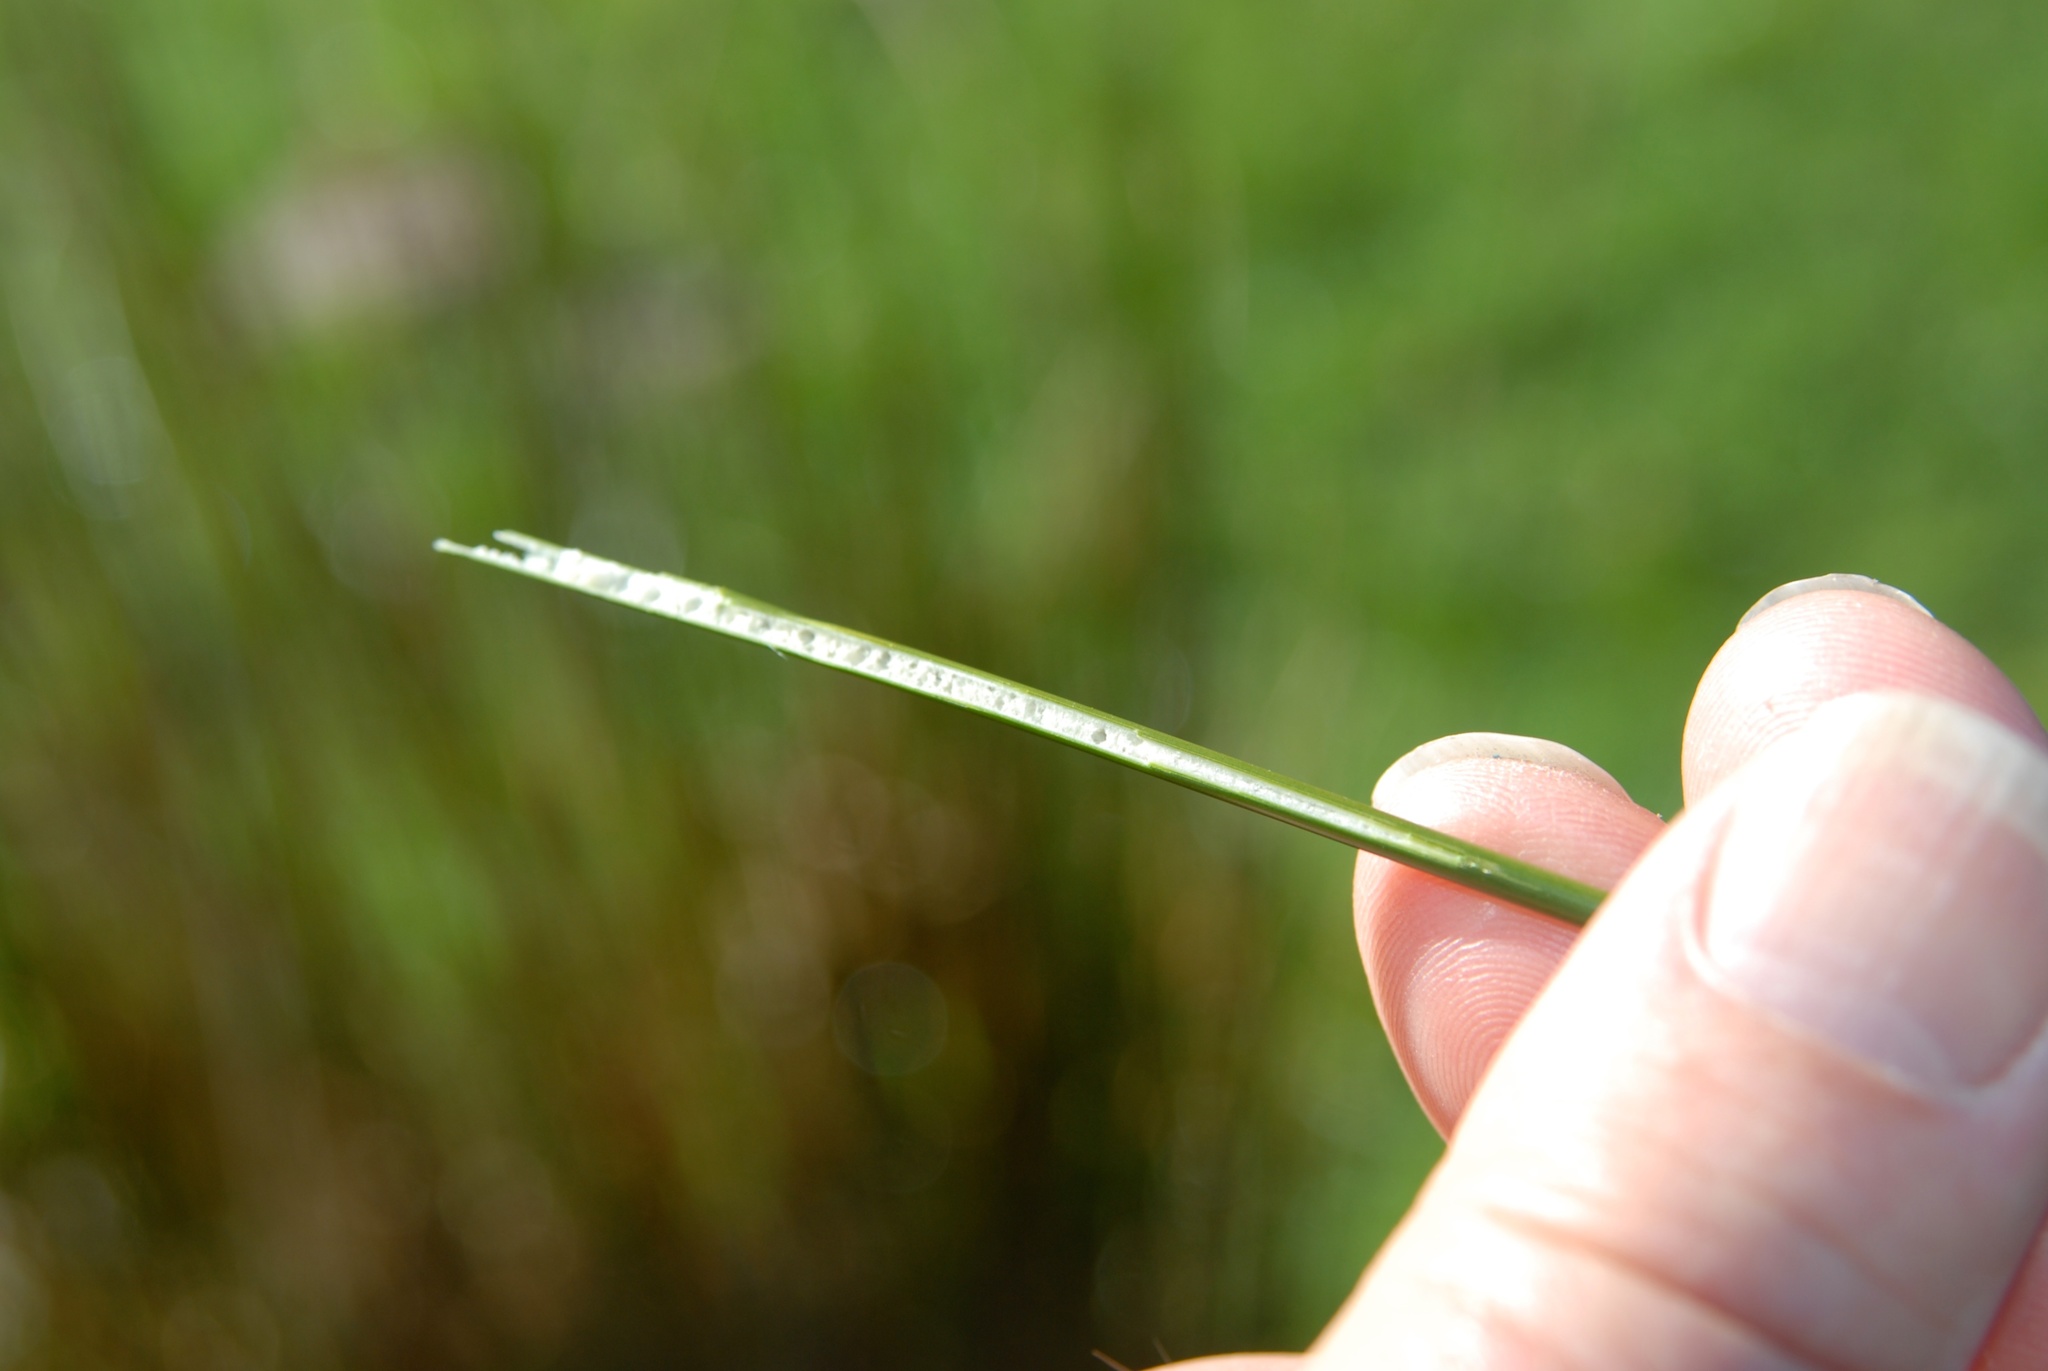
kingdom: Plantae
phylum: Tracheophyta
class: Liliopsida
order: Poales
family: Juncaceae
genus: Juncus
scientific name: Juncus edgariae
